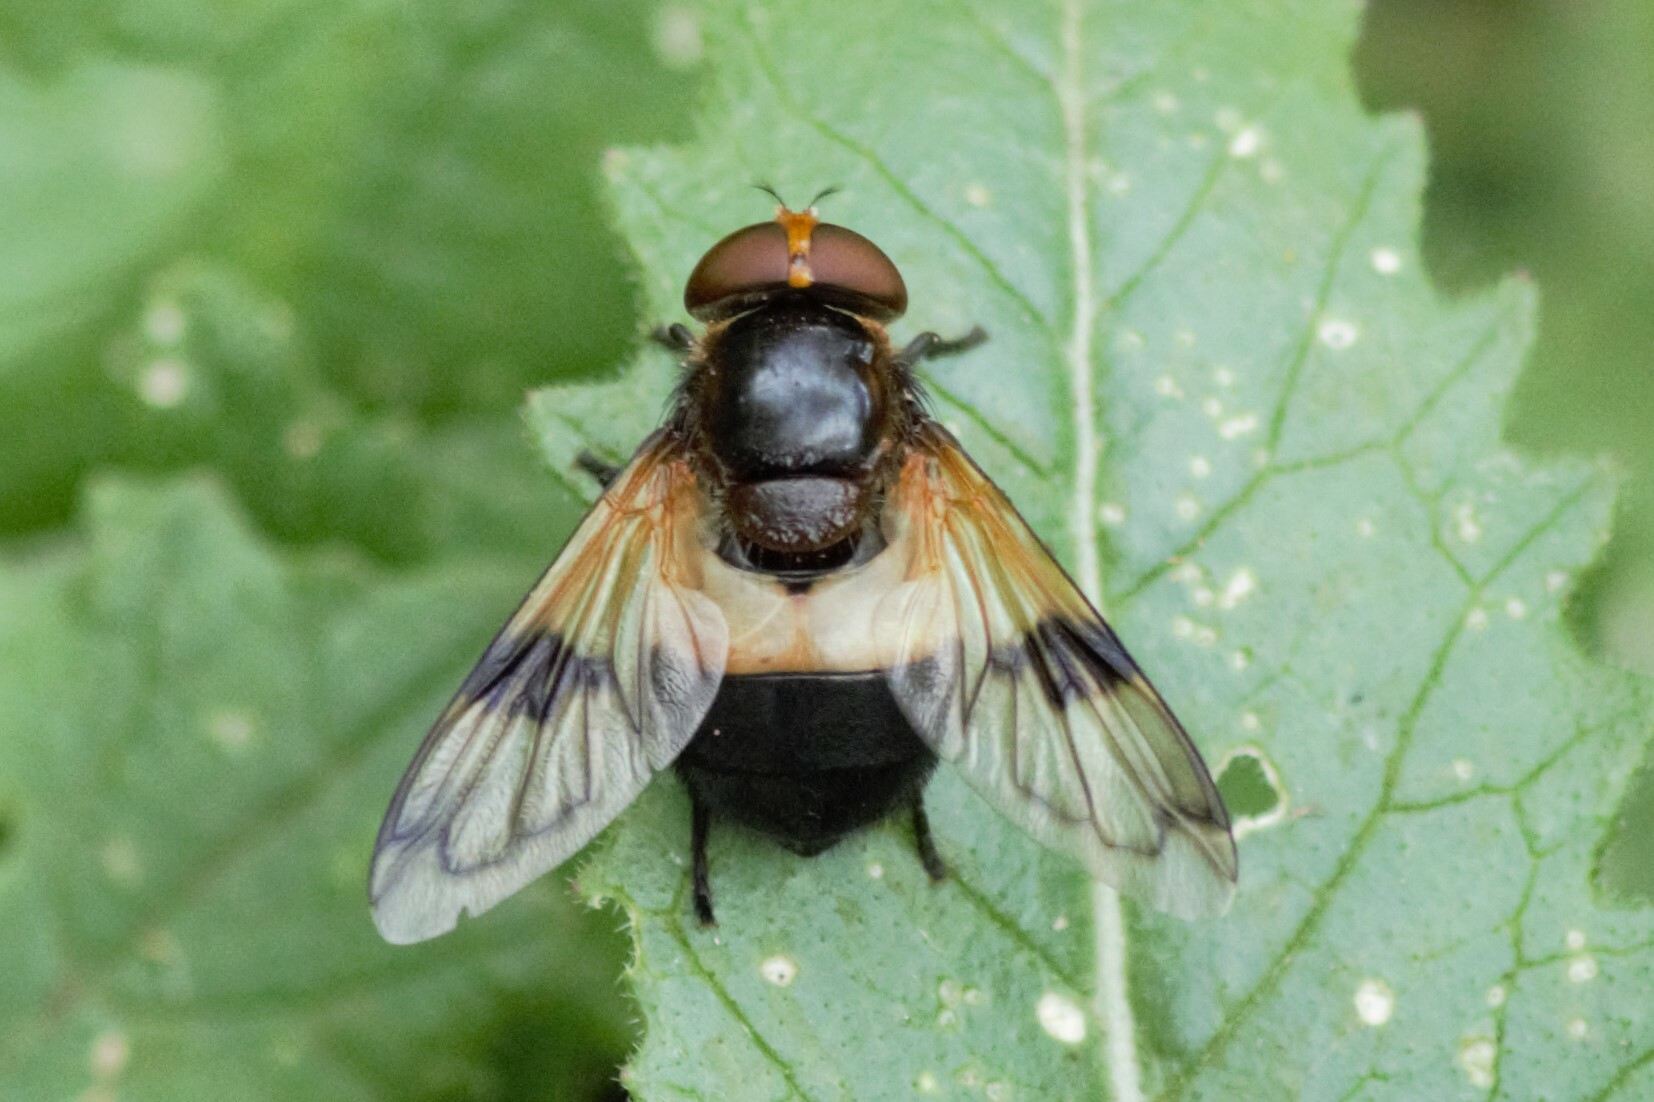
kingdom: Animalia
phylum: Arthropoda
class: Insecta
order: Diptera
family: Syrphidae
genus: Volucella
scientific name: Volucella pellucens
